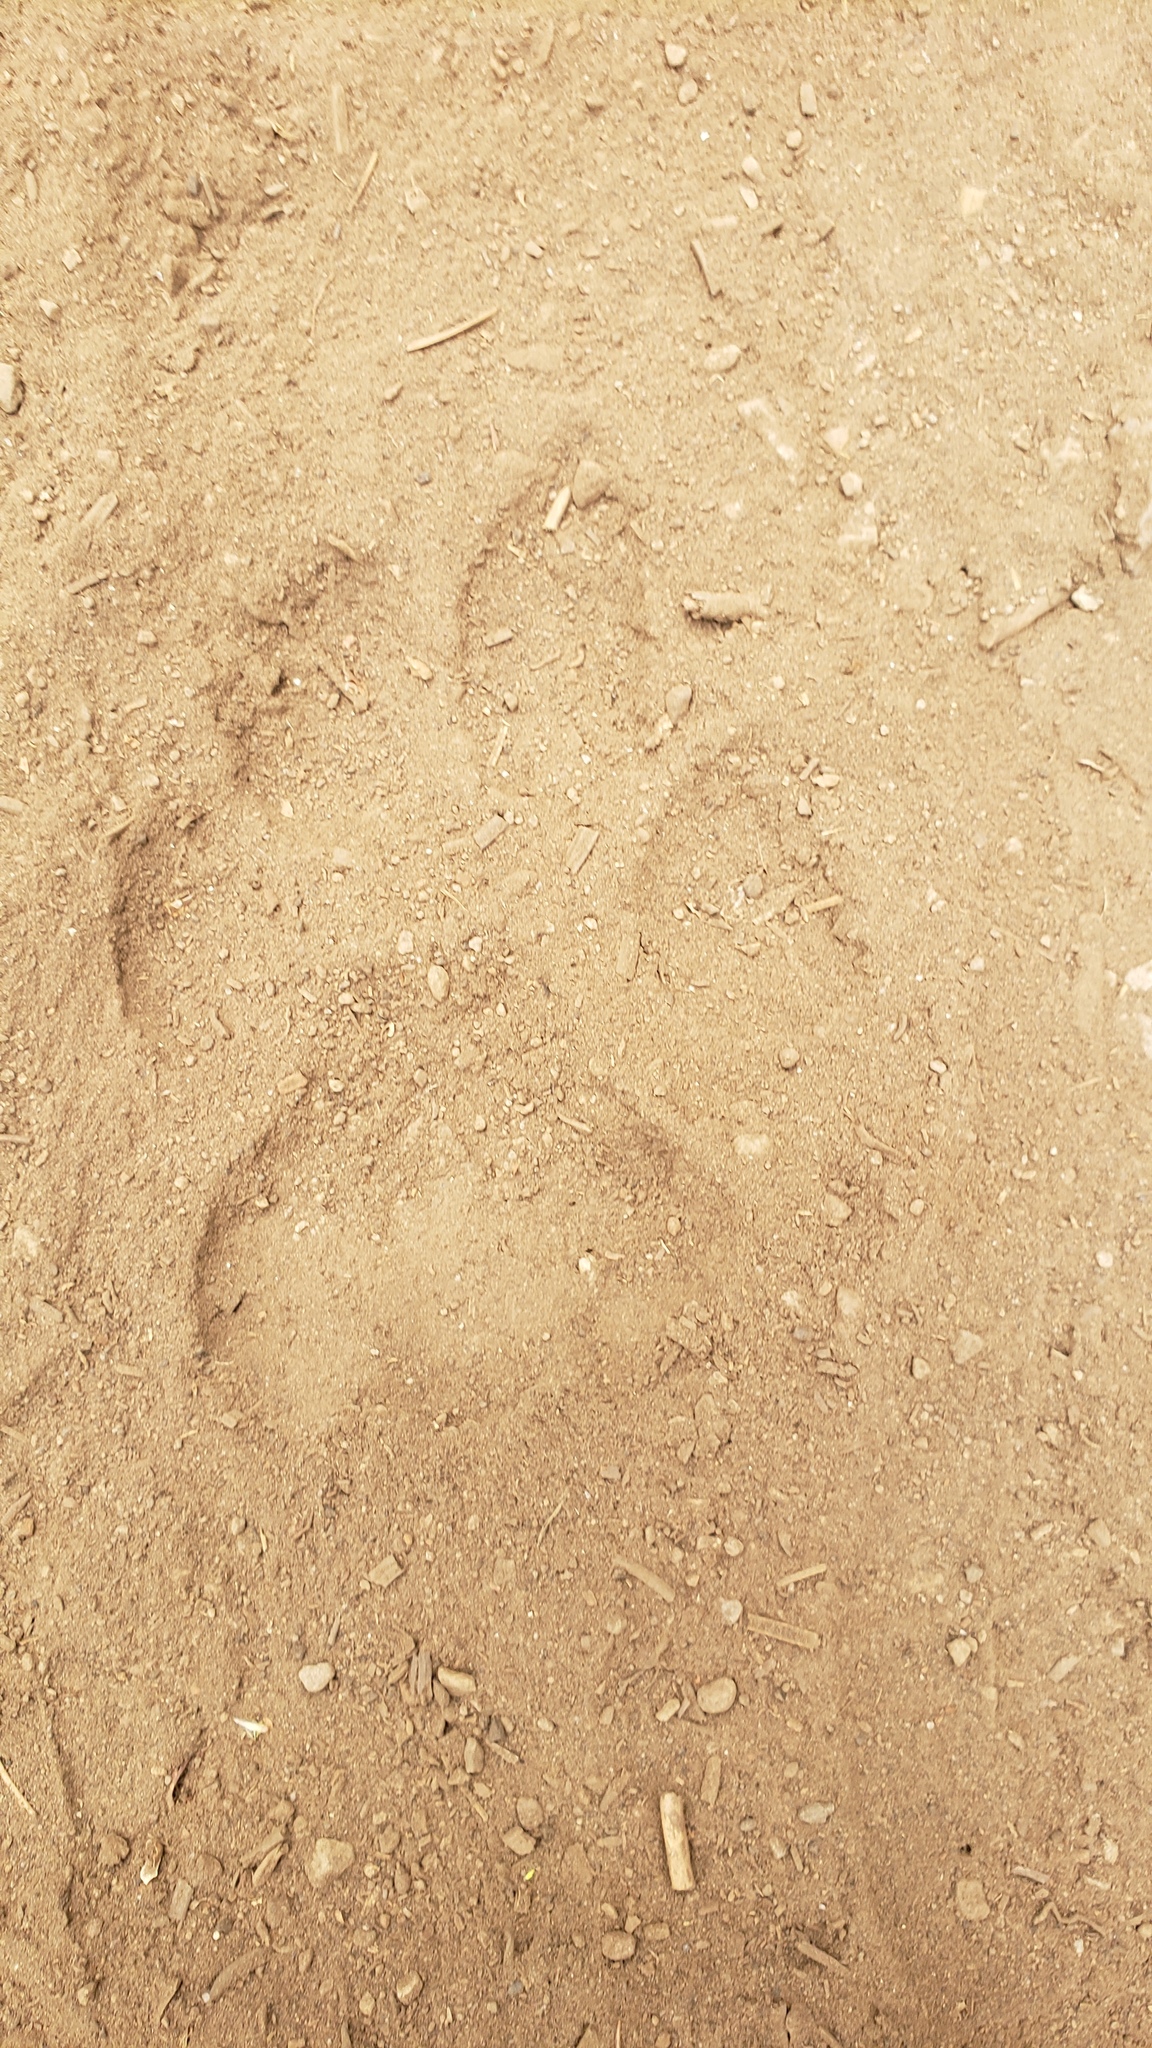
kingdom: Animalia
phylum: Chordata
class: Mammalia
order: Carnivora
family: Felidae
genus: Puma
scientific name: Puma concolor
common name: Puma
